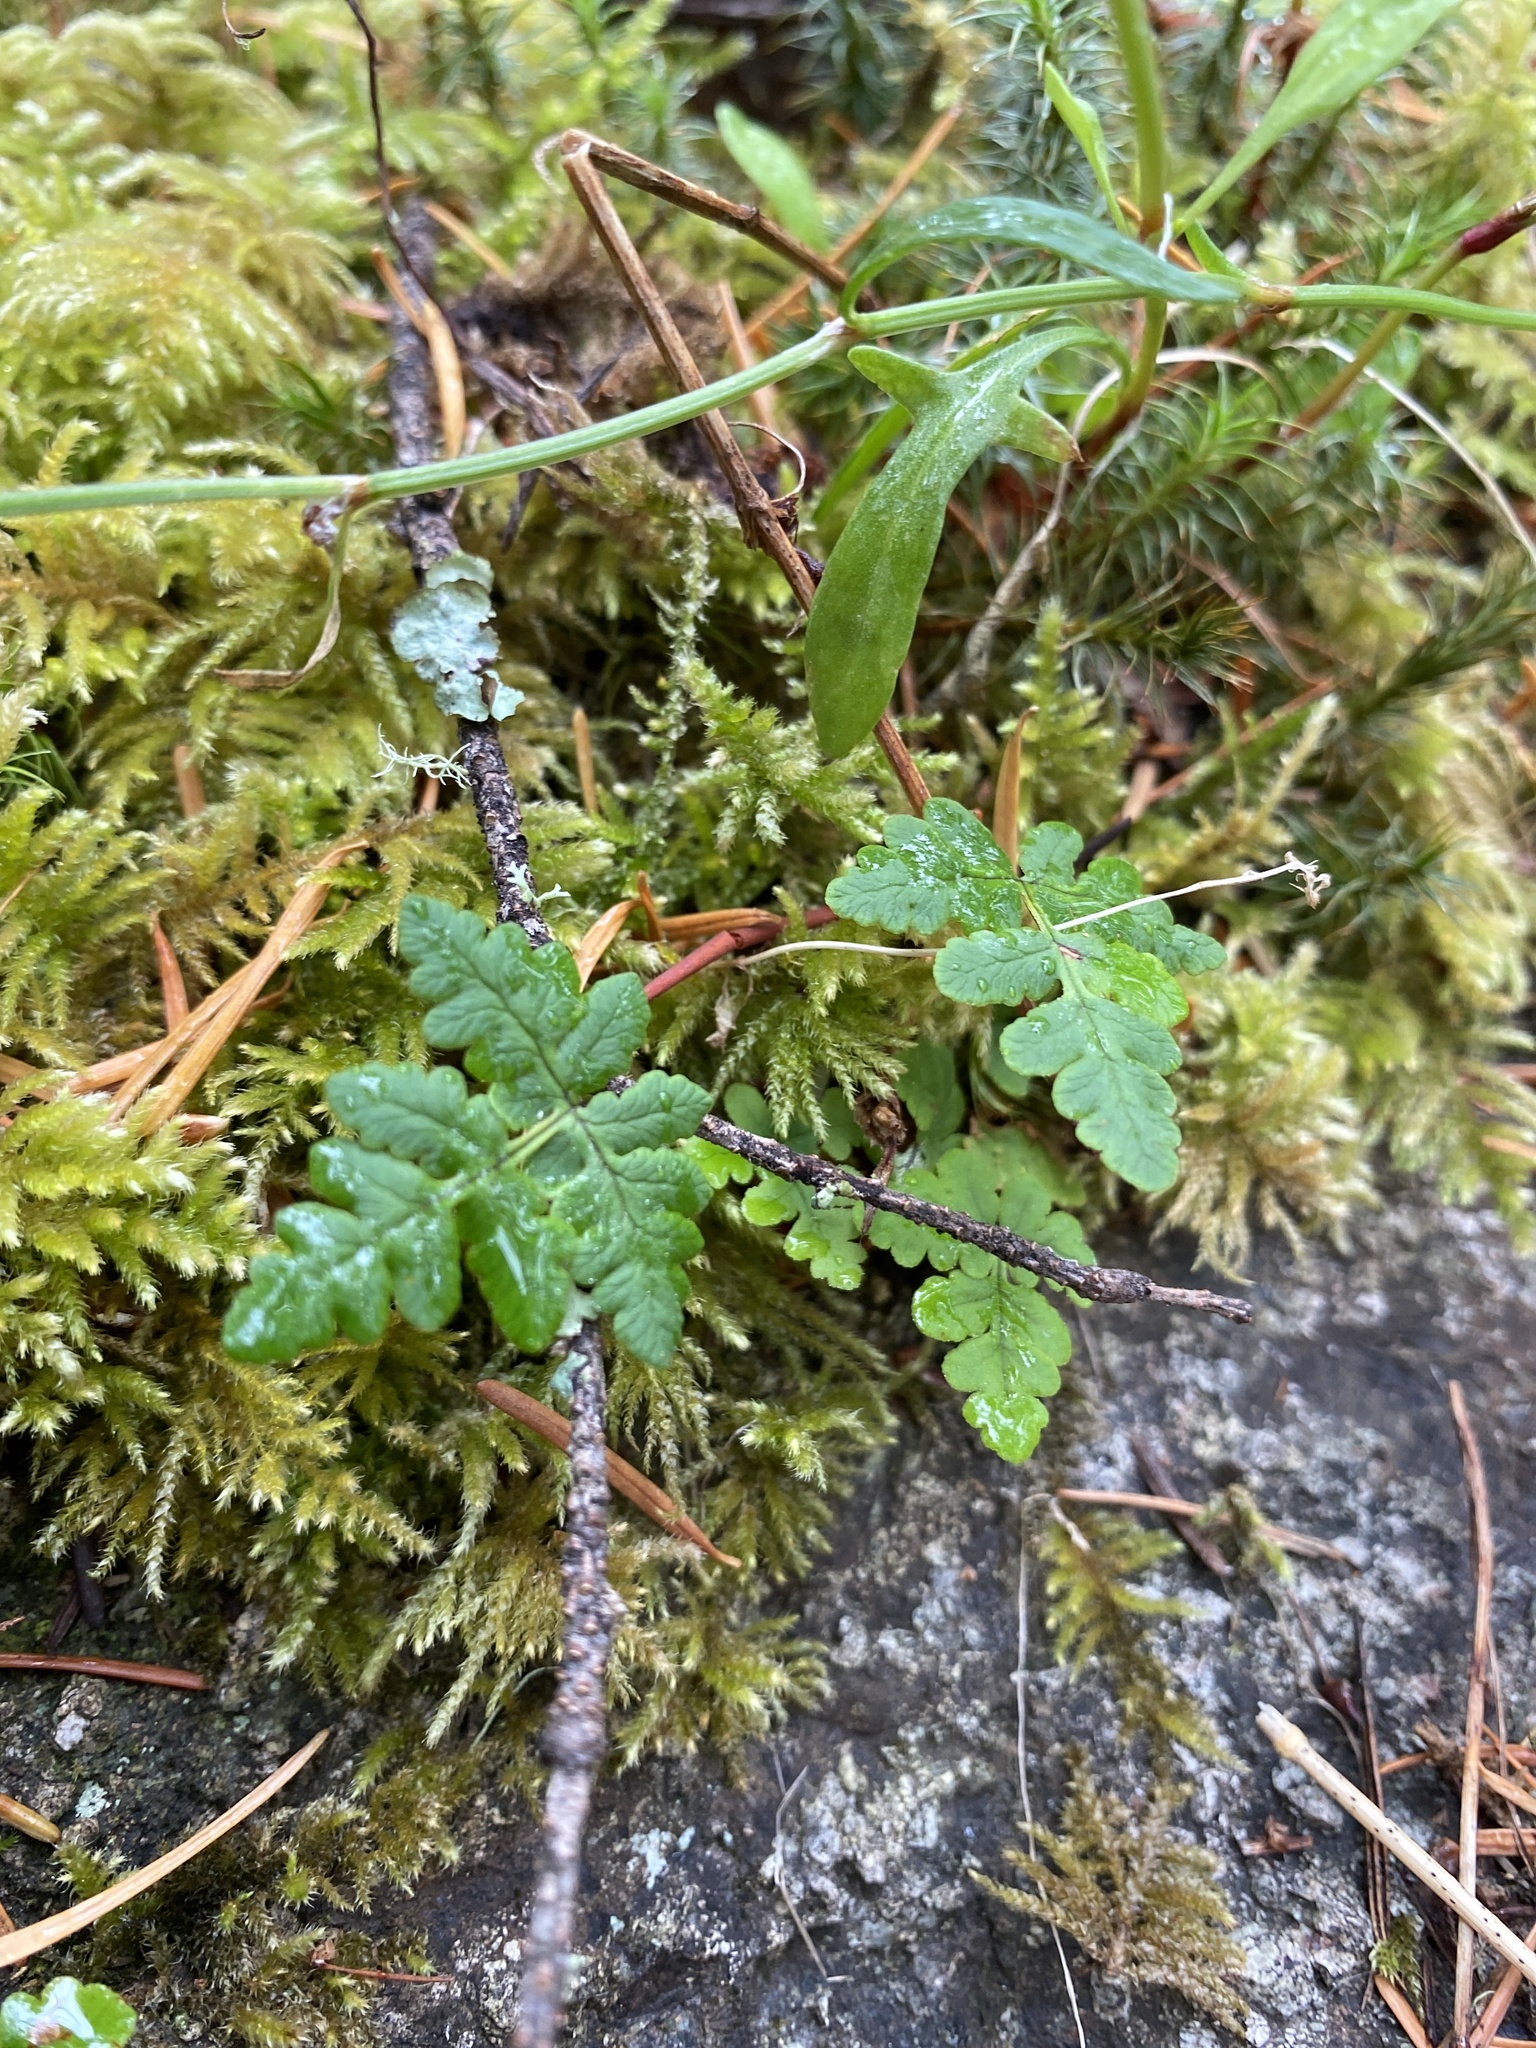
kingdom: Plantae
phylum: Tracheophyta
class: Polypodiopsida
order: Polypodiales
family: Pteridaceae
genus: Pentagramma
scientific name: Pentagramma triangularis
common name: Gold fern
